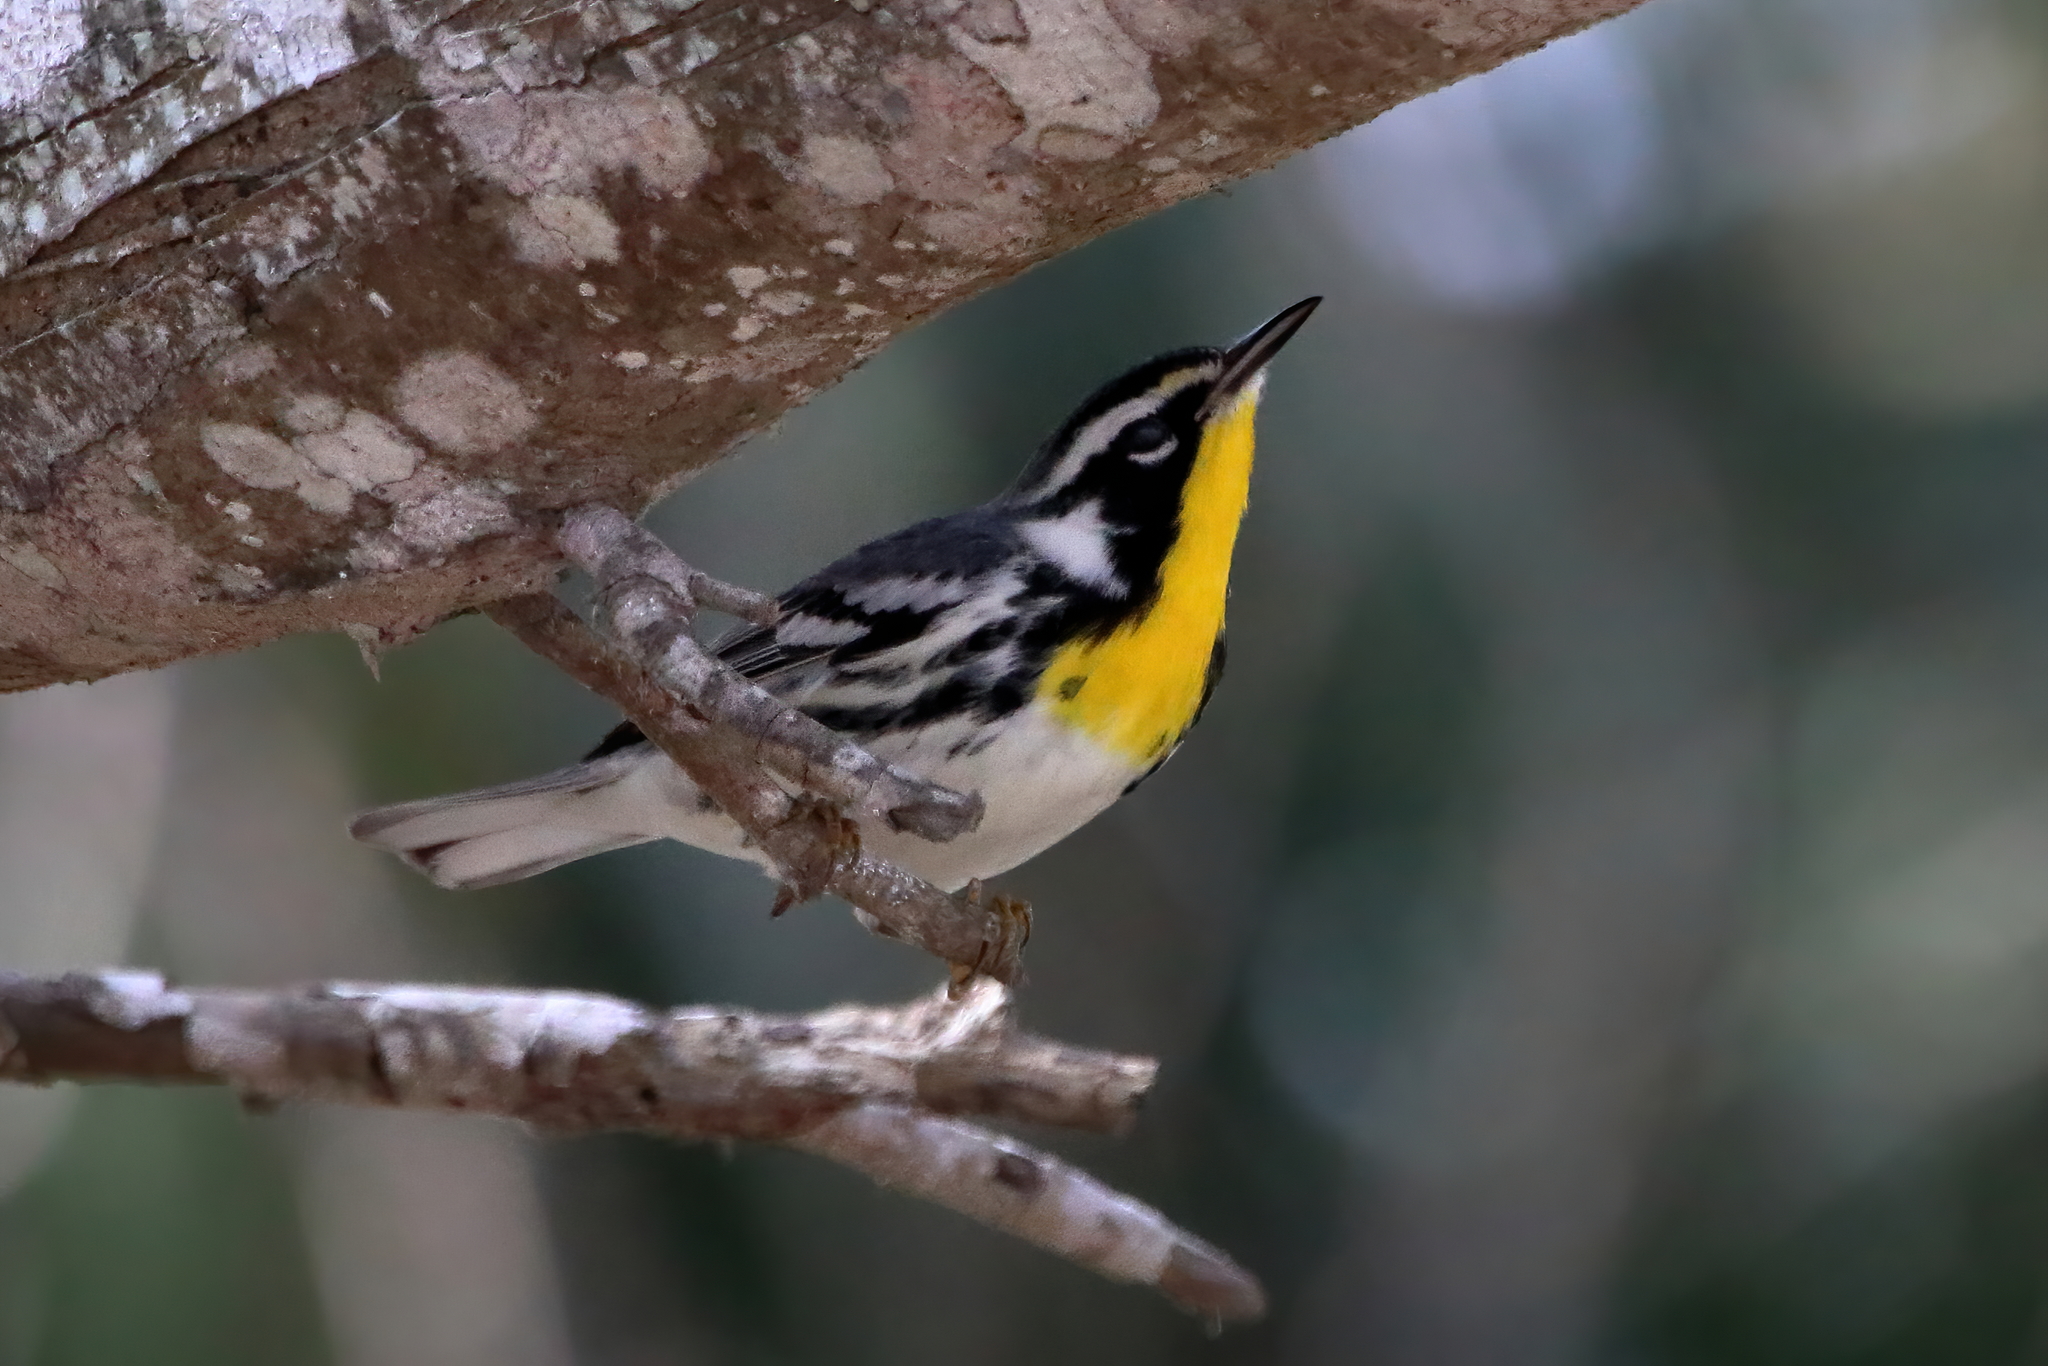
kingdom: Animalia
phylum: Chordata
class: Aves
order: Passeriformes
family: Parulidae
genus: Setophaga
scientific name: Setophaga dominica
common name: Yellow-throated warbler
